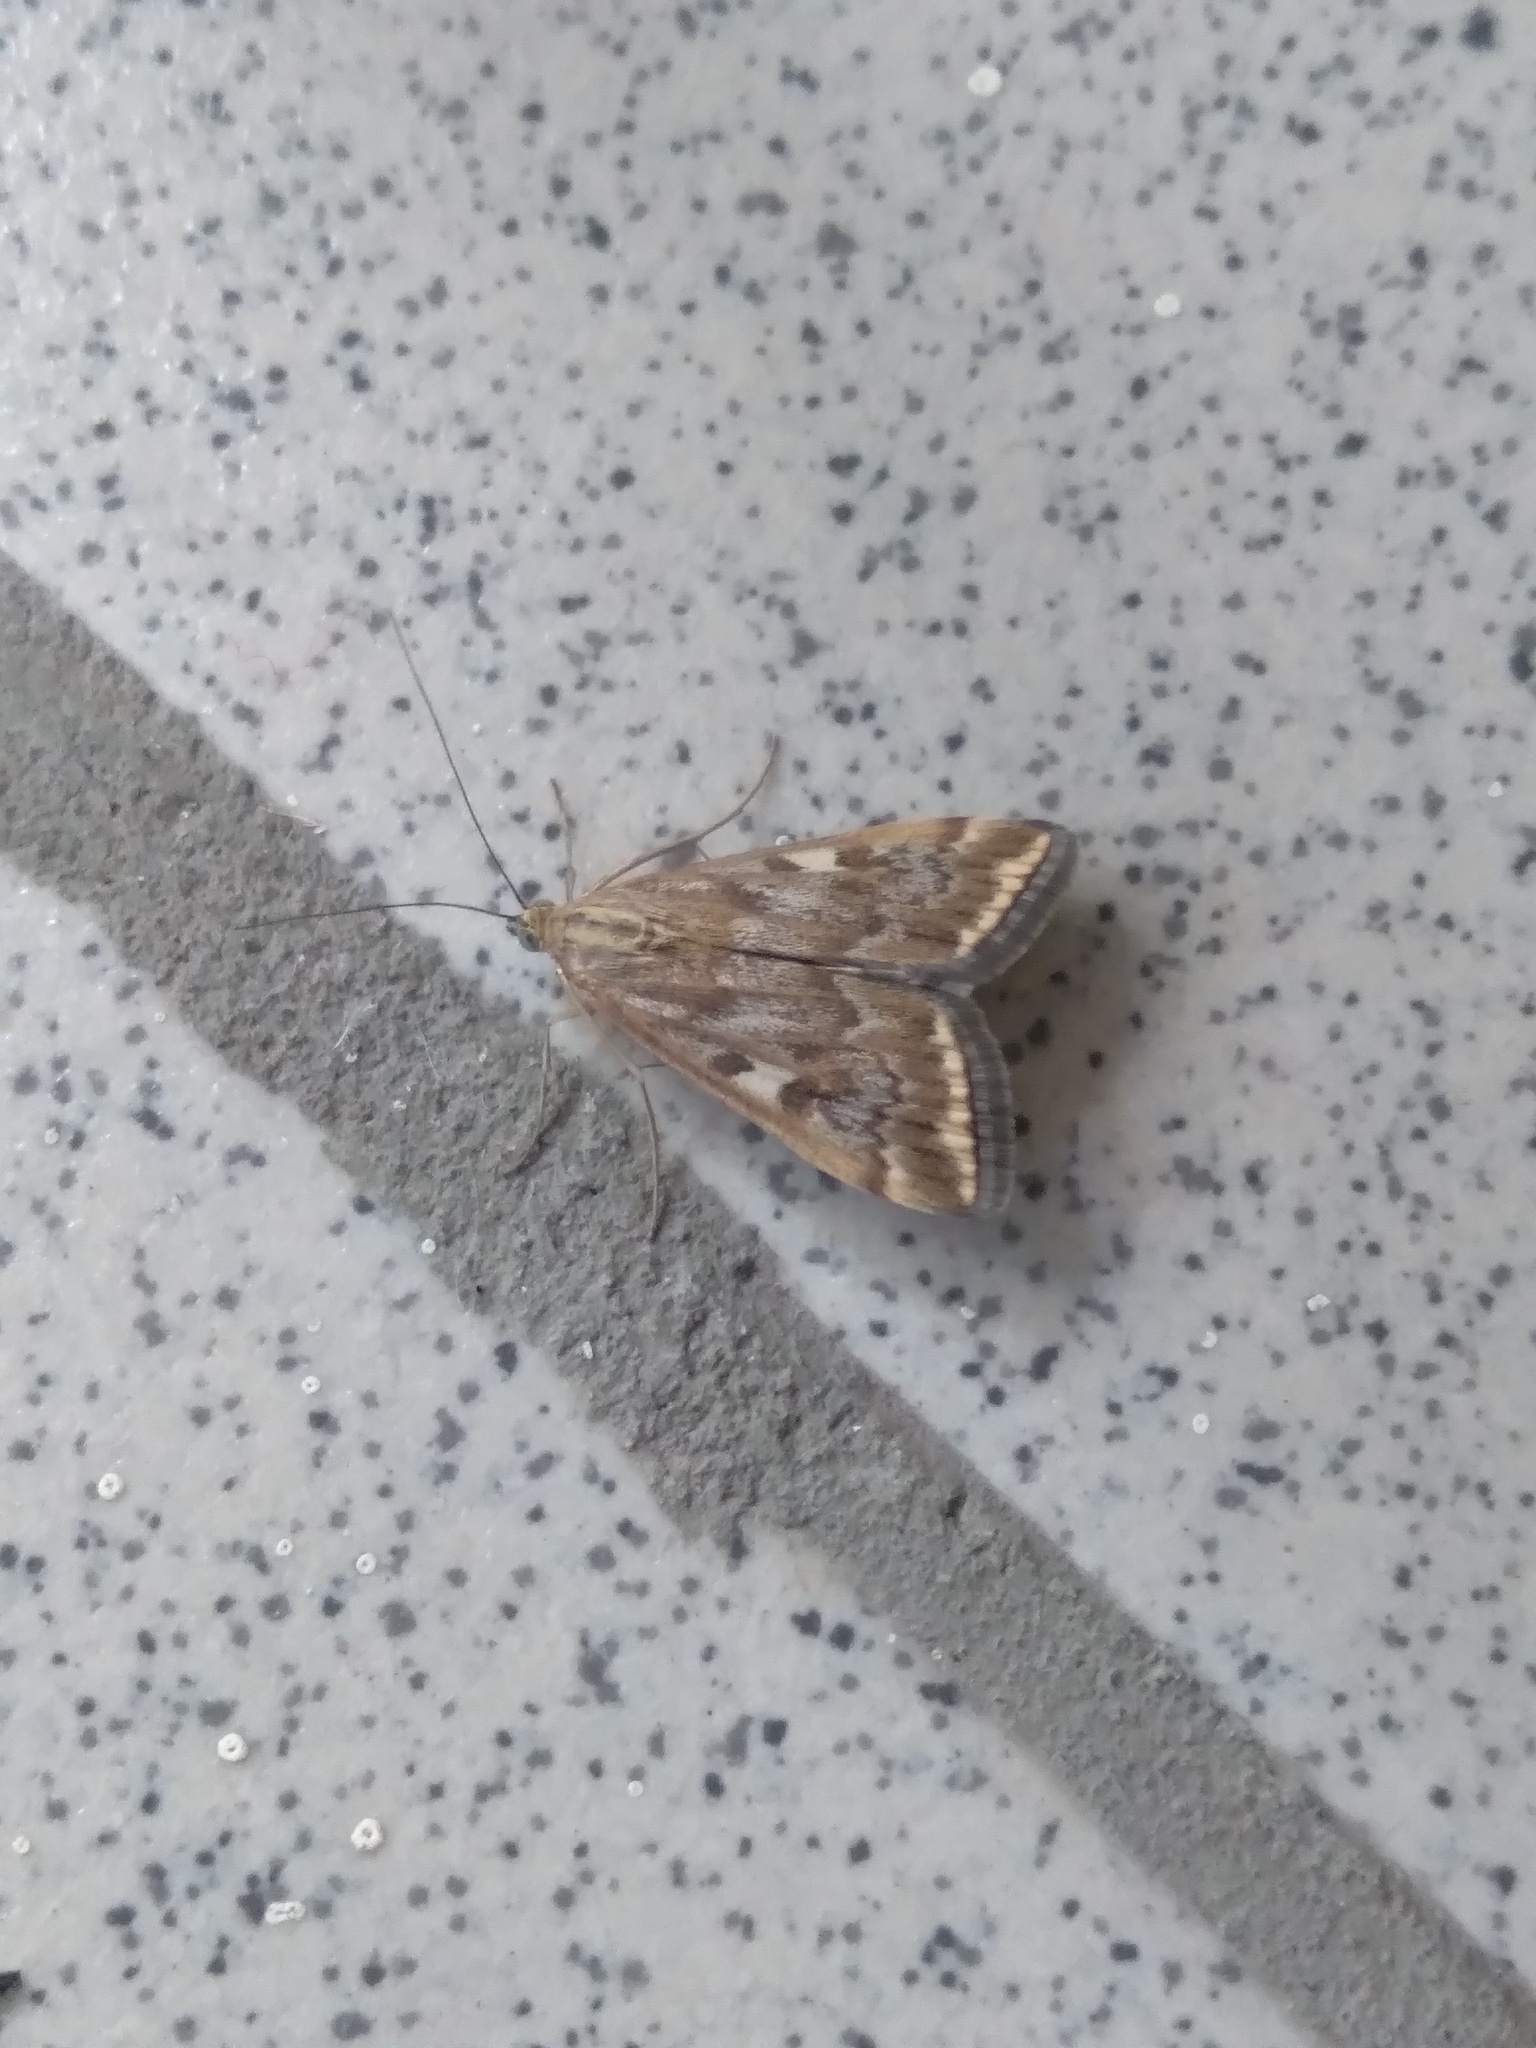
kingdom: Animalia
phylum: Arthropoda
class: Insecta
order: Lepidoptera
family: Crambidae
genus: Loxostege
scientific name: Loxostege sticticalis
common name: Crambid moth
